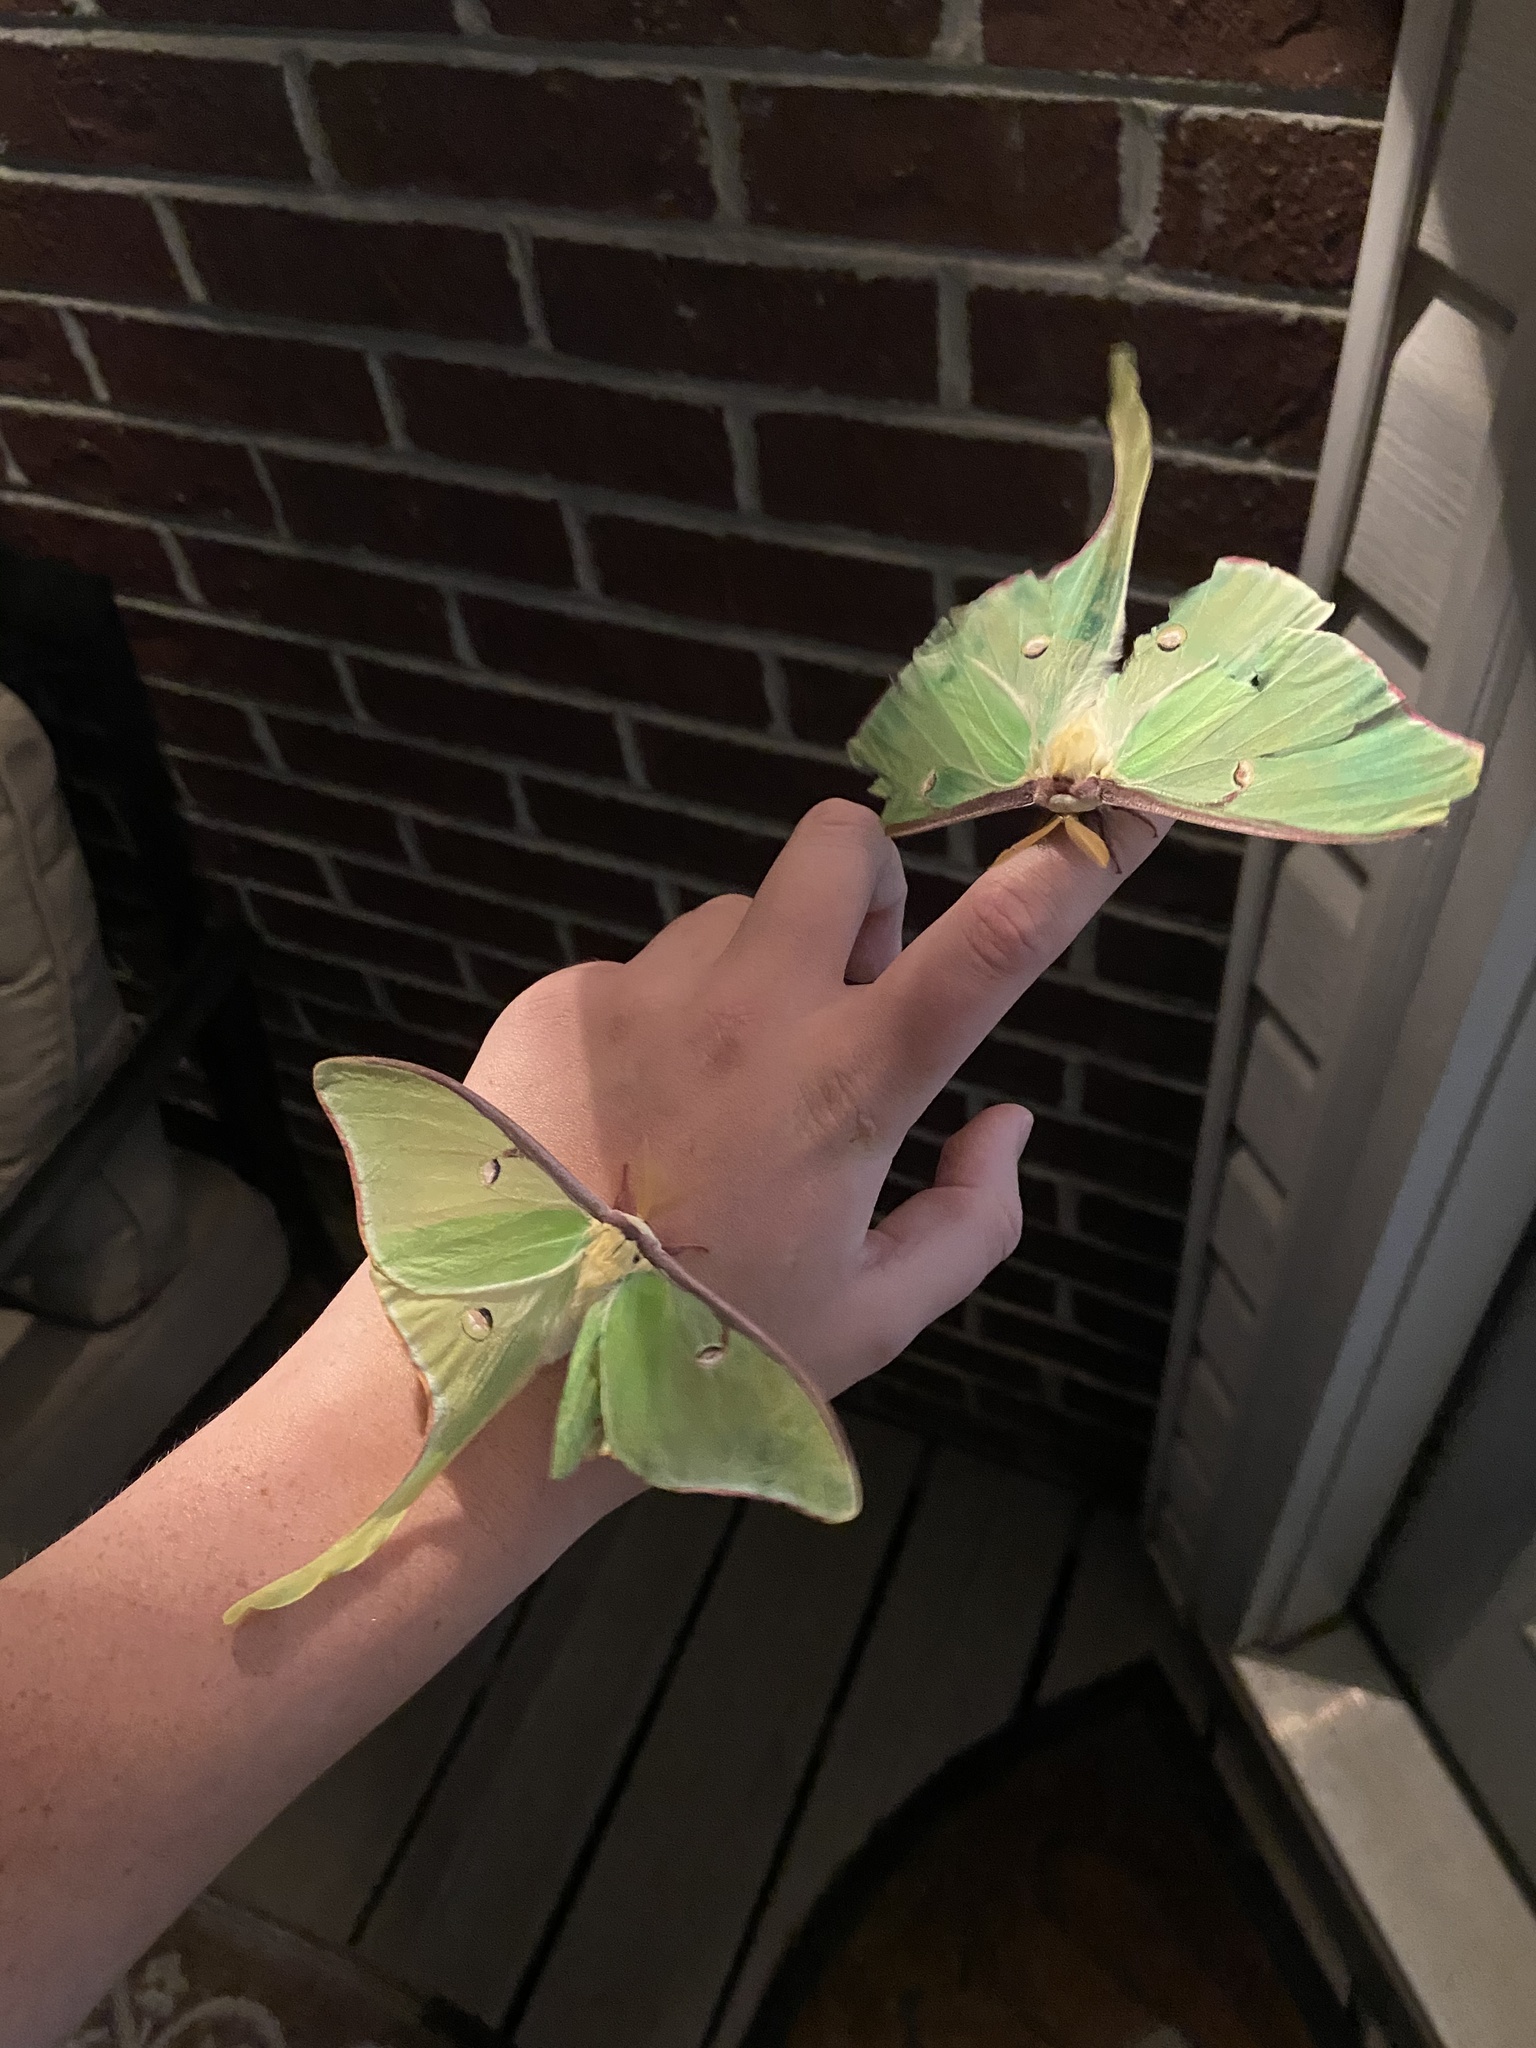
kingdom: Animalia
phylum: Arthropoda
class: Insecta
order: Lepidoptera
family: Saturniidae
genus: Actias
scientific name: Actias luna
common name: Luna moth
